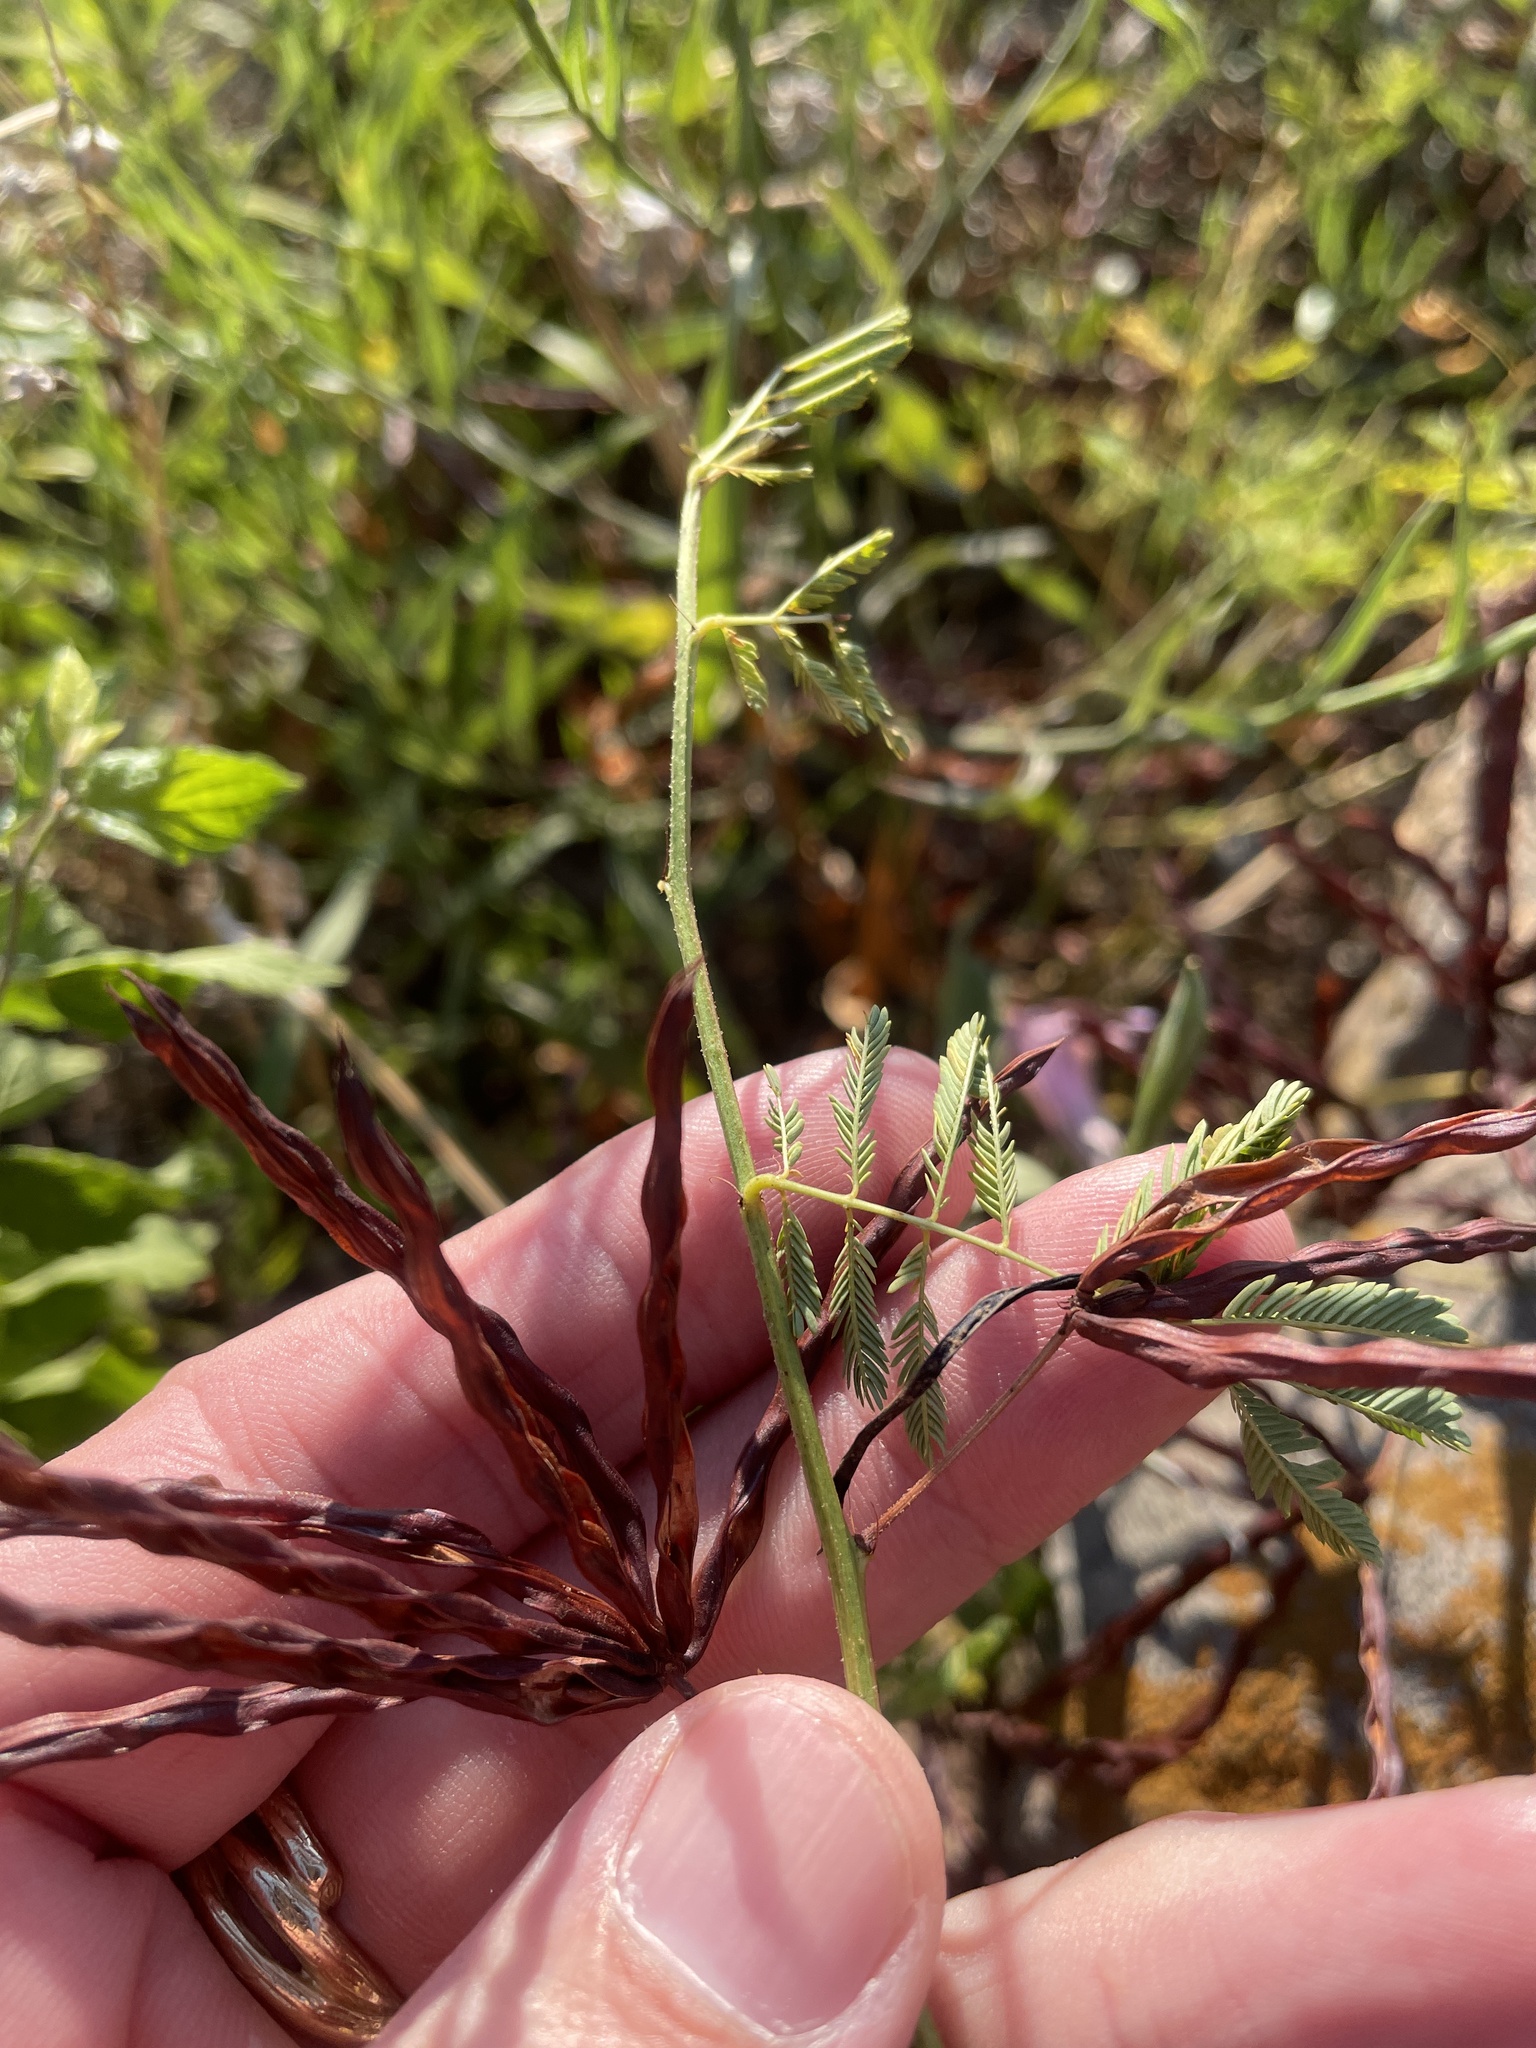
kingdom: Plantae
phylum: Tracheophyta
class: Magnoliopsida
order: Fabales
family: Fabaceae
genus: Desmanthus
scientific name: Desmanthus leptolobus
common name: Prairie-mimosa
